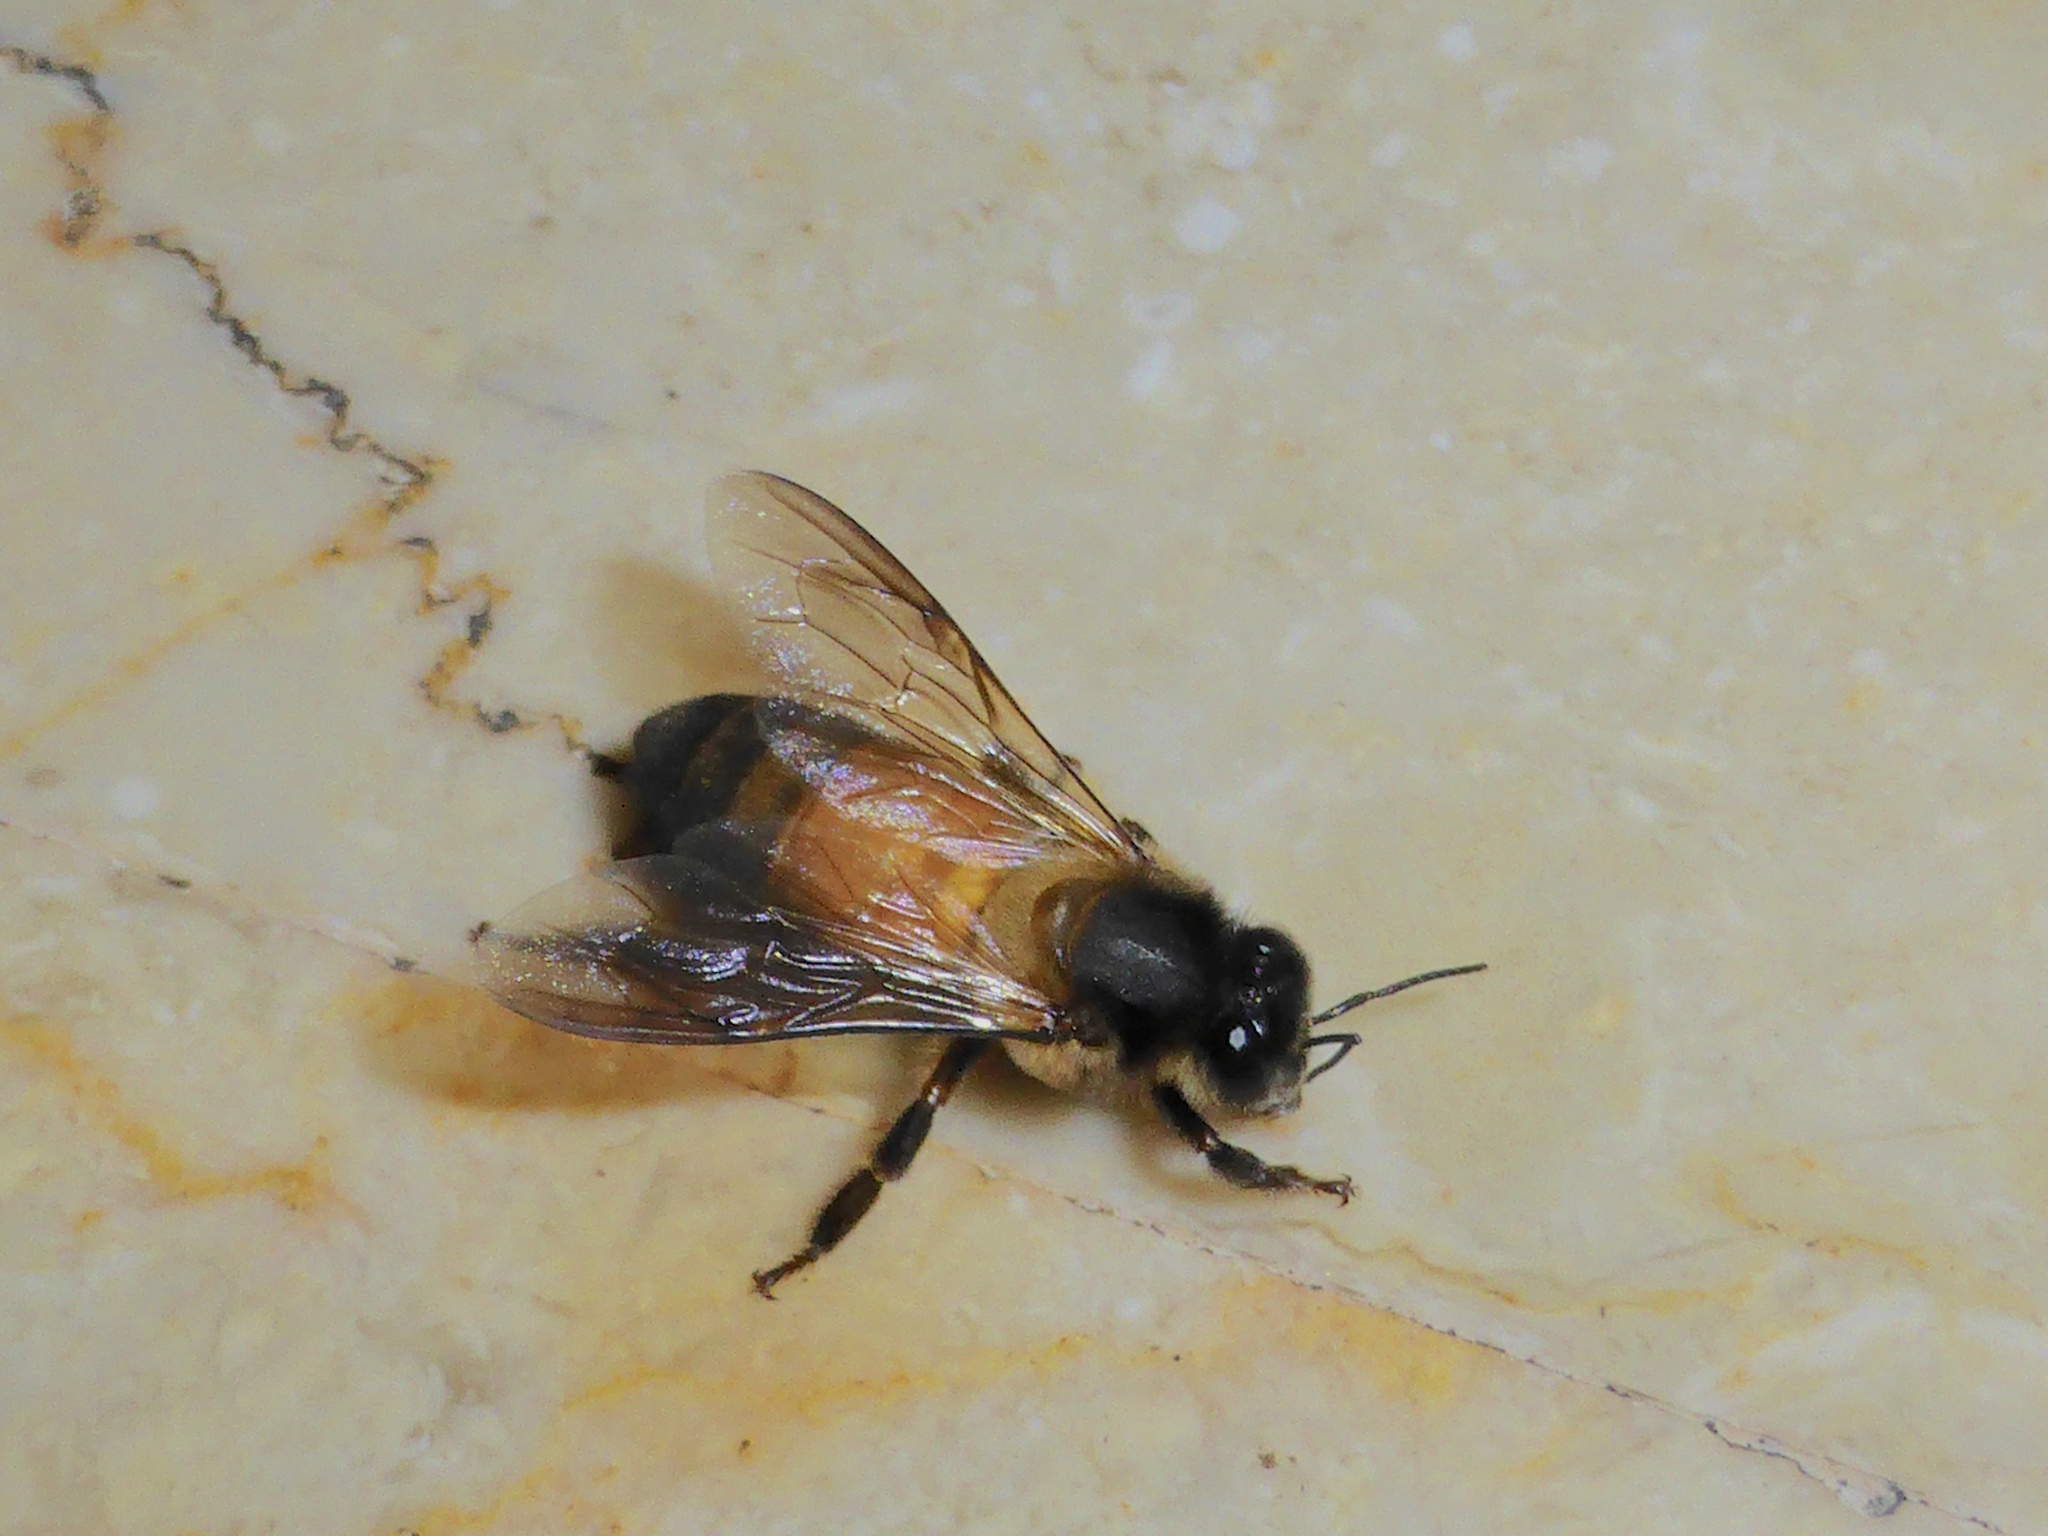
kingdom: Animalia
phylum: Arthropoda
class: Insecta
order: Hymenoptera
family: Apidae
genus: Apis
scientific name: Apis dorsata
